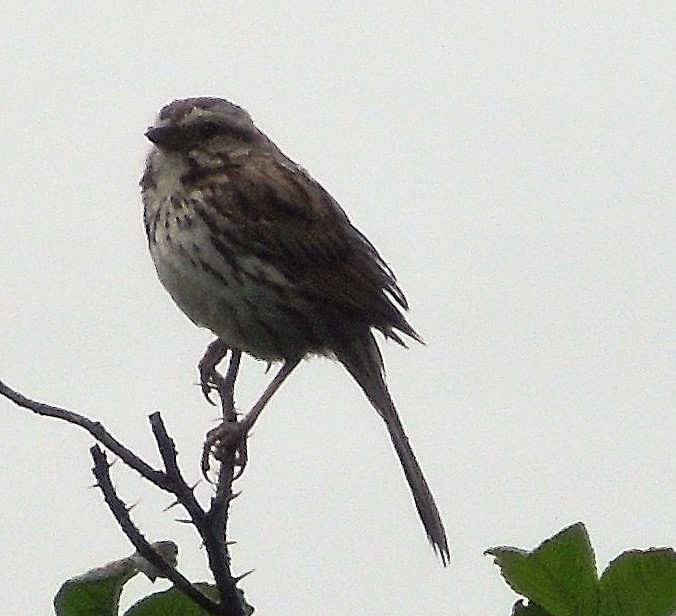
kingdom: Animalia
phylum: Chordata
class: Aves
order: Passeriformes
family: Passerellidae
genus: Melospiza
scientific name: Melospiza melodia
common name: Song sparrow
